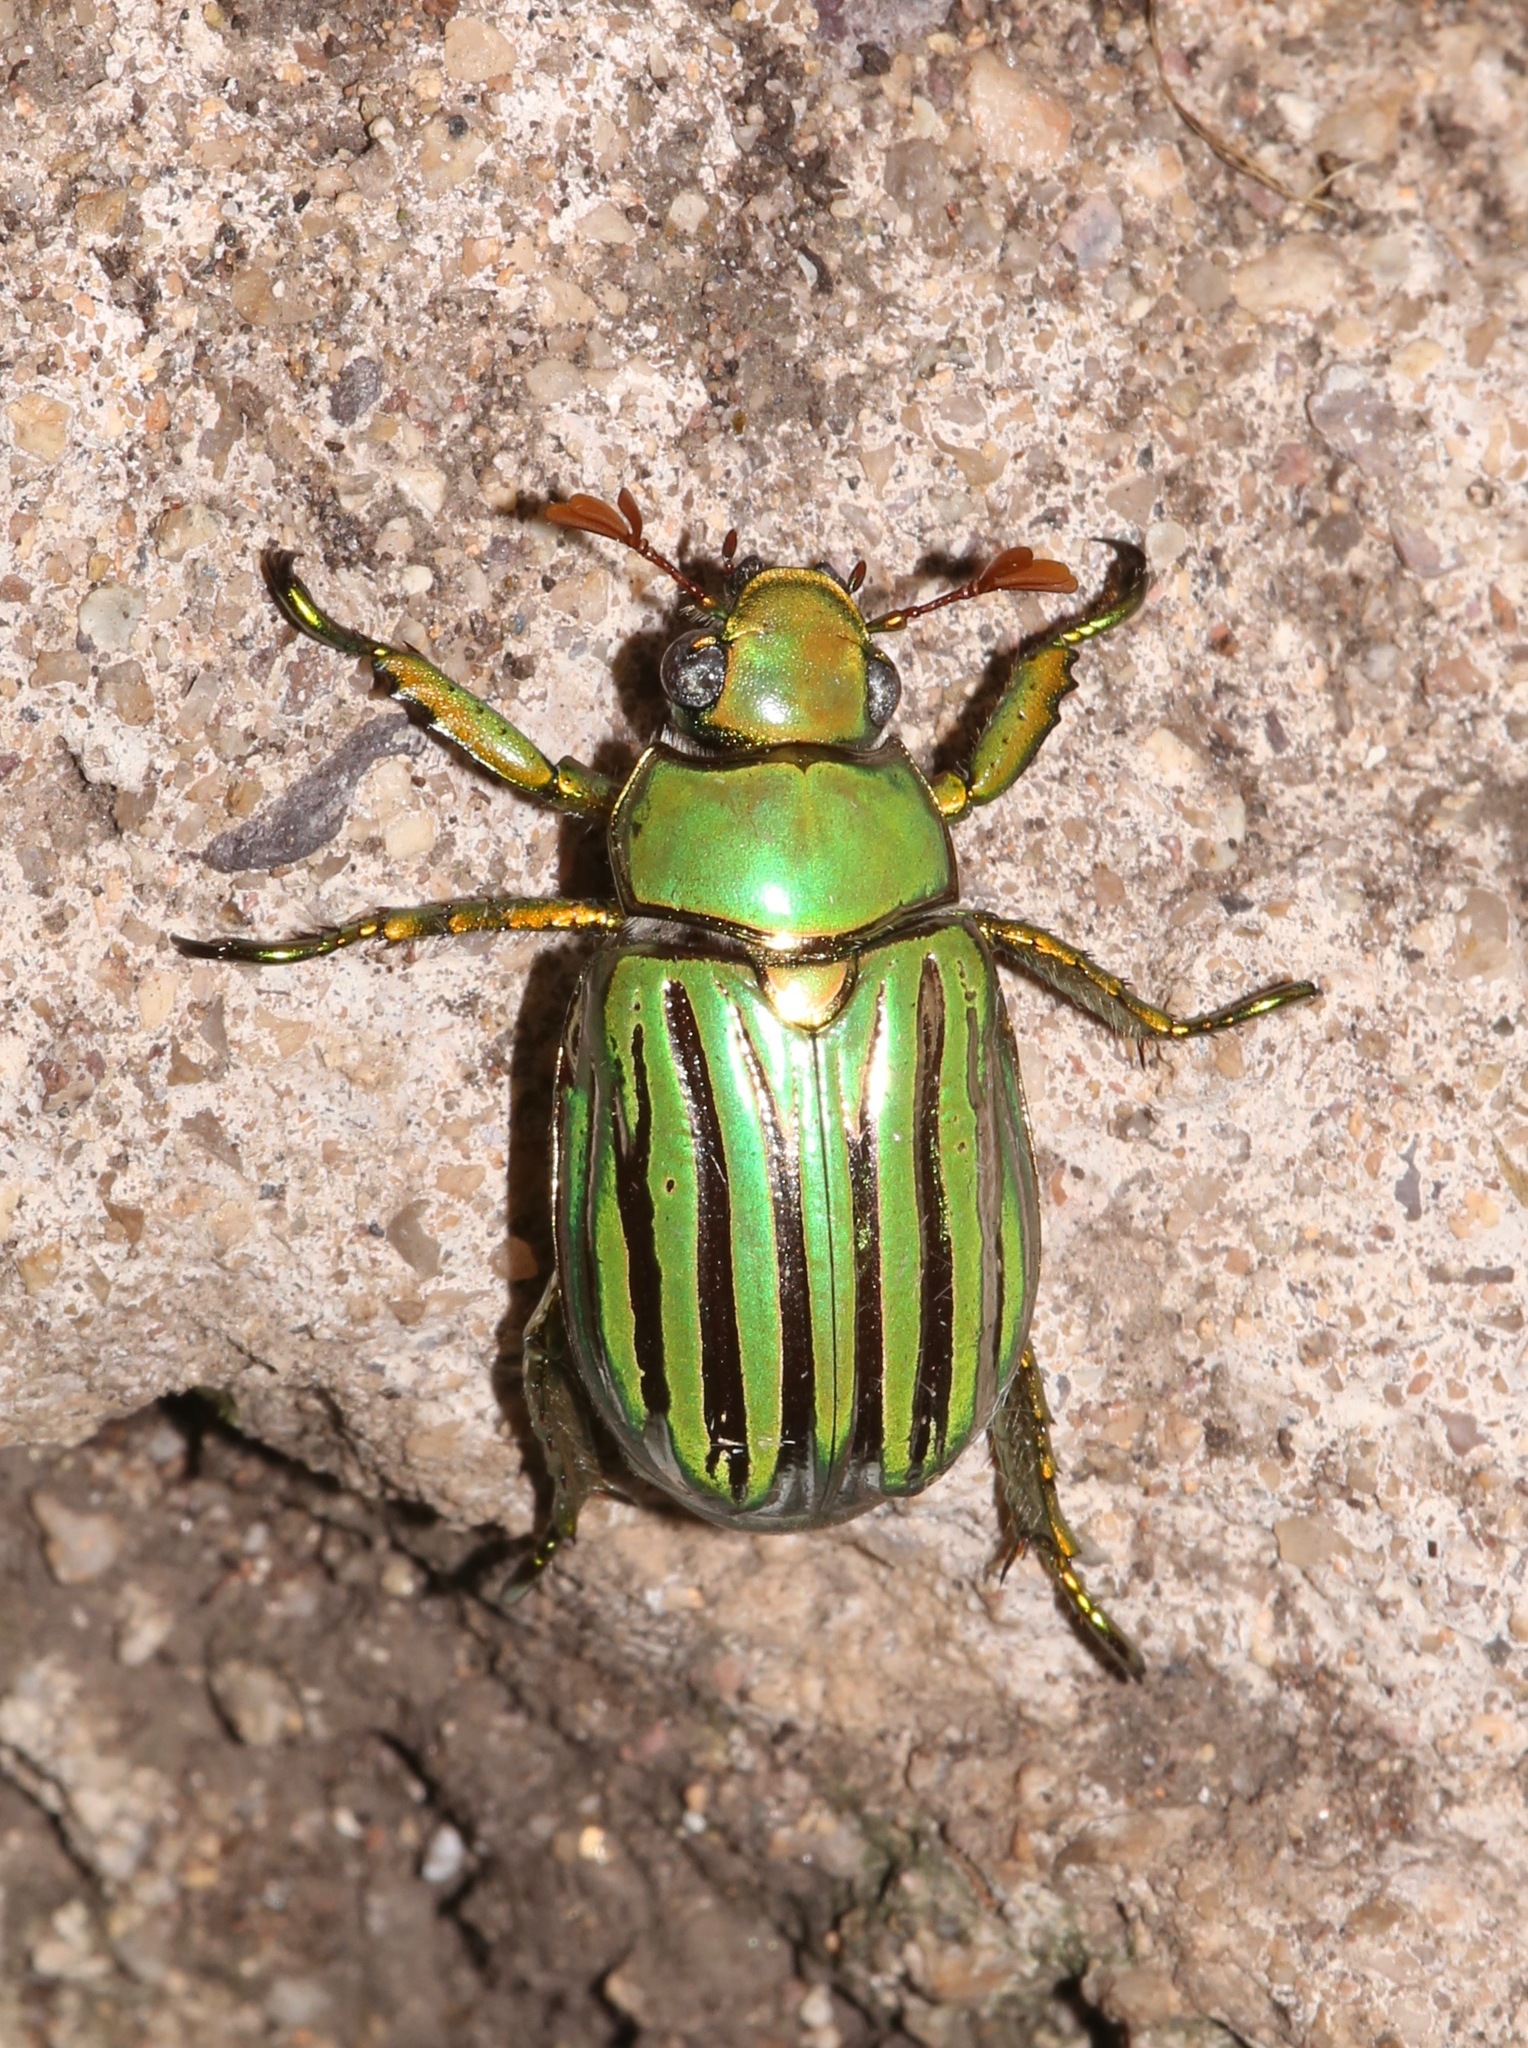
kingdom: Animalia
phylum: Arthropoda
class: Insecta
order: Coleoptera
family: Scarabaeidae
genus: Chrysina
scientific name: Chrysina gloriosa
